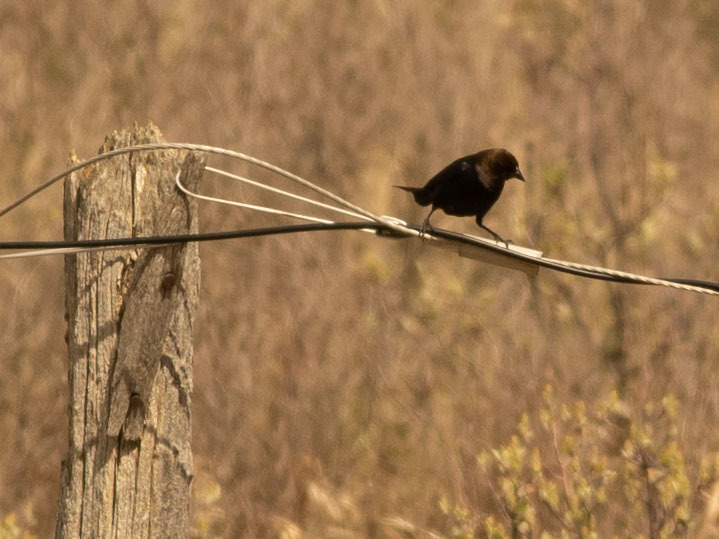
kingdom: Animalia
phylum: Chordata
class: Aves
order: Passeriformes
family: Icteridae
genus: Molothrus
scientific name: Molothrus ater
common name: Brown-headed cowbird
